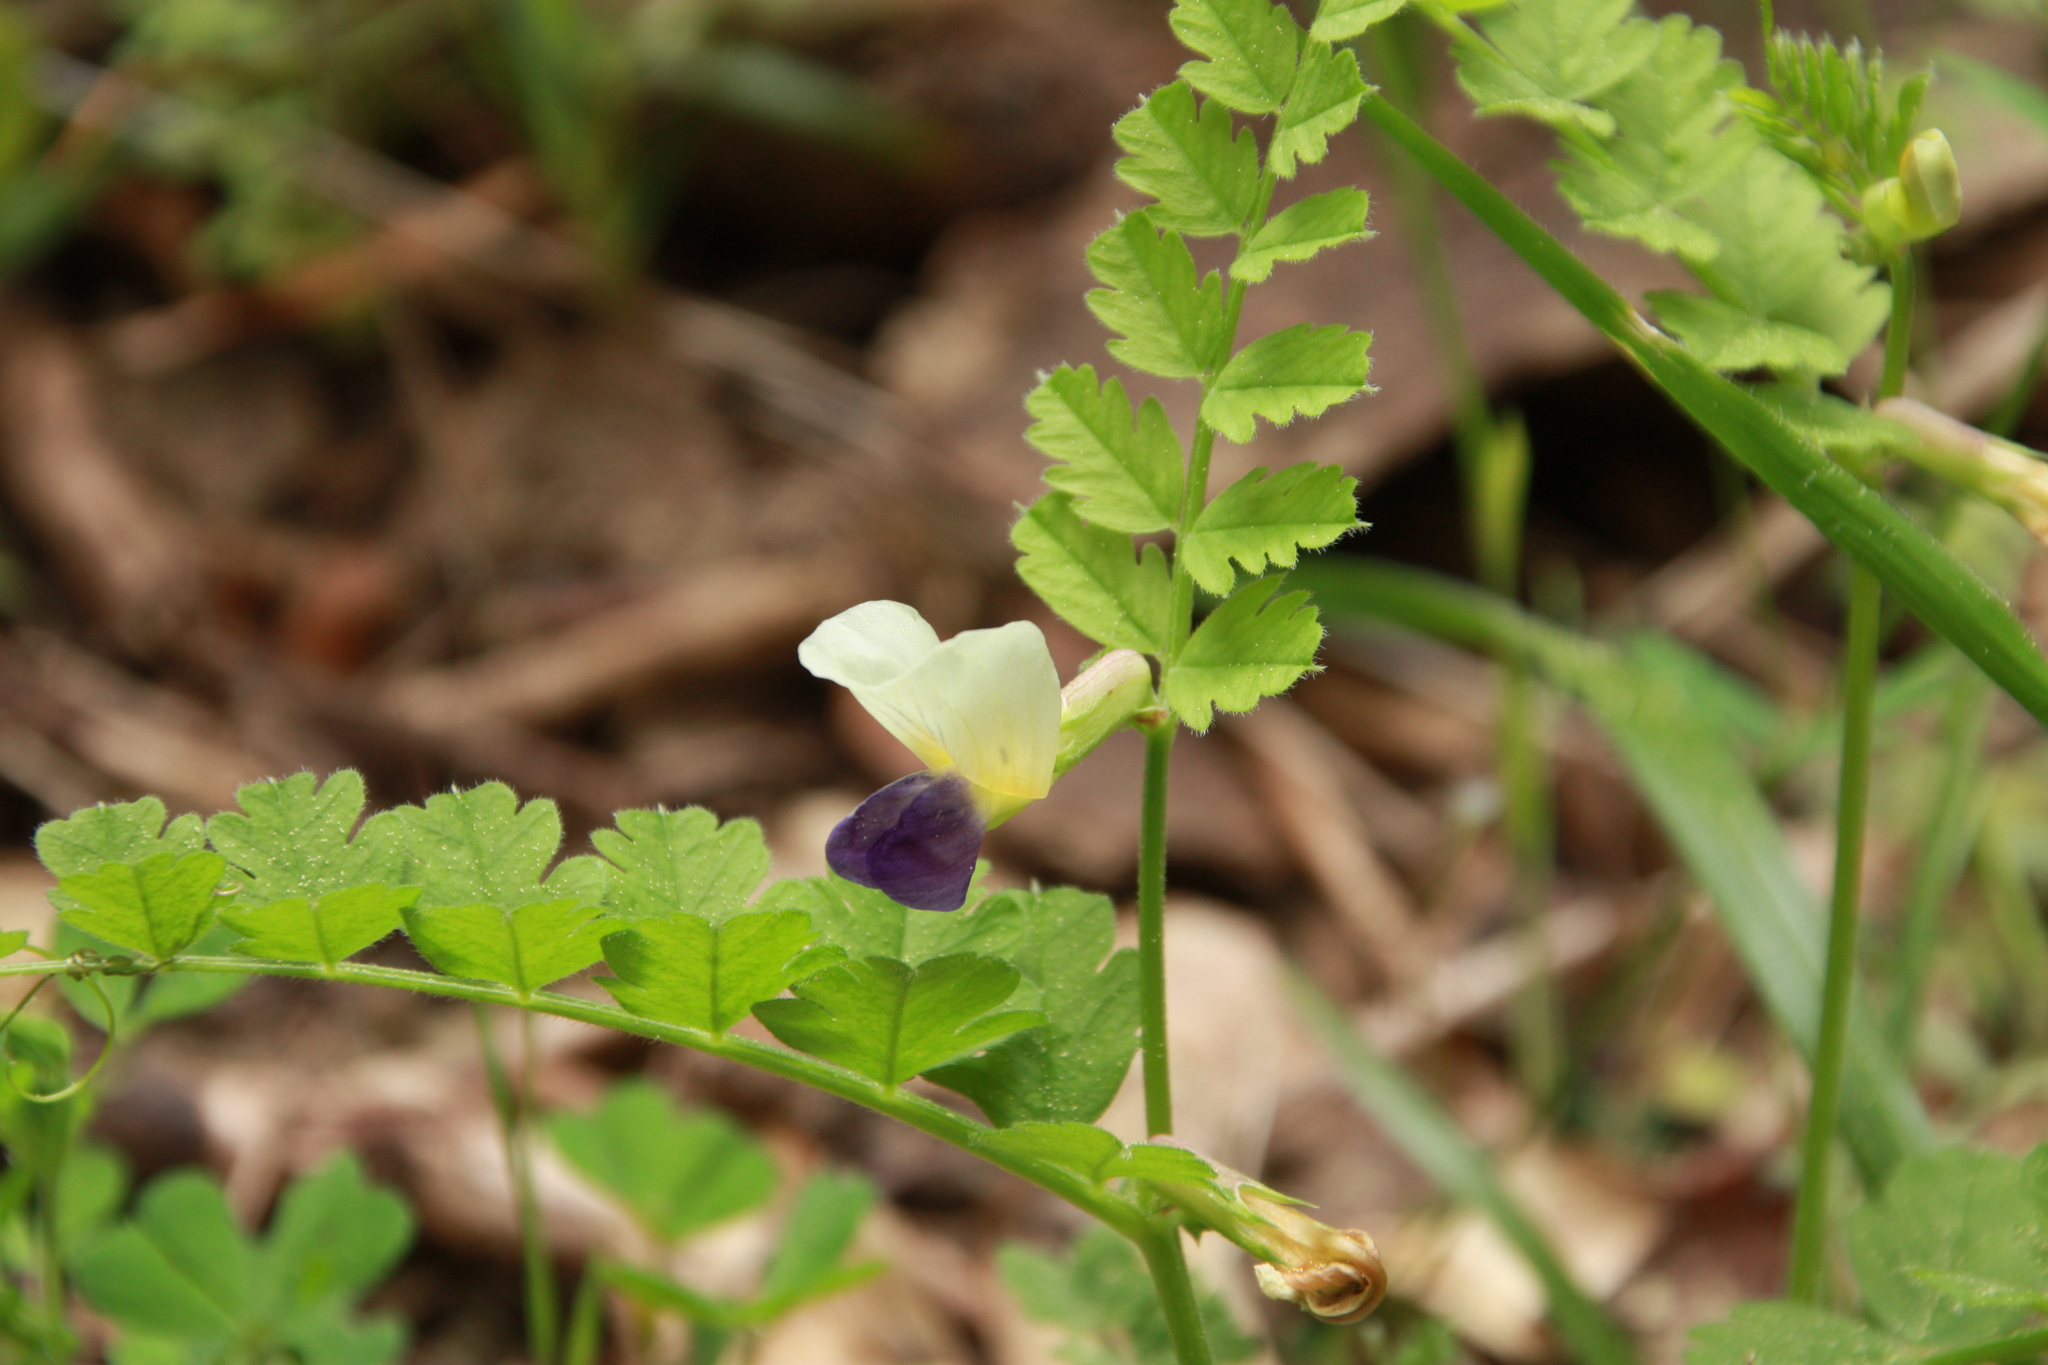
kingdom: Plantae
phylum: Tracheophyta
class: Magnoliopsida
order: Fabales
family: Fabaceae
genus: Vicia
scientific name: Vicia laeta
